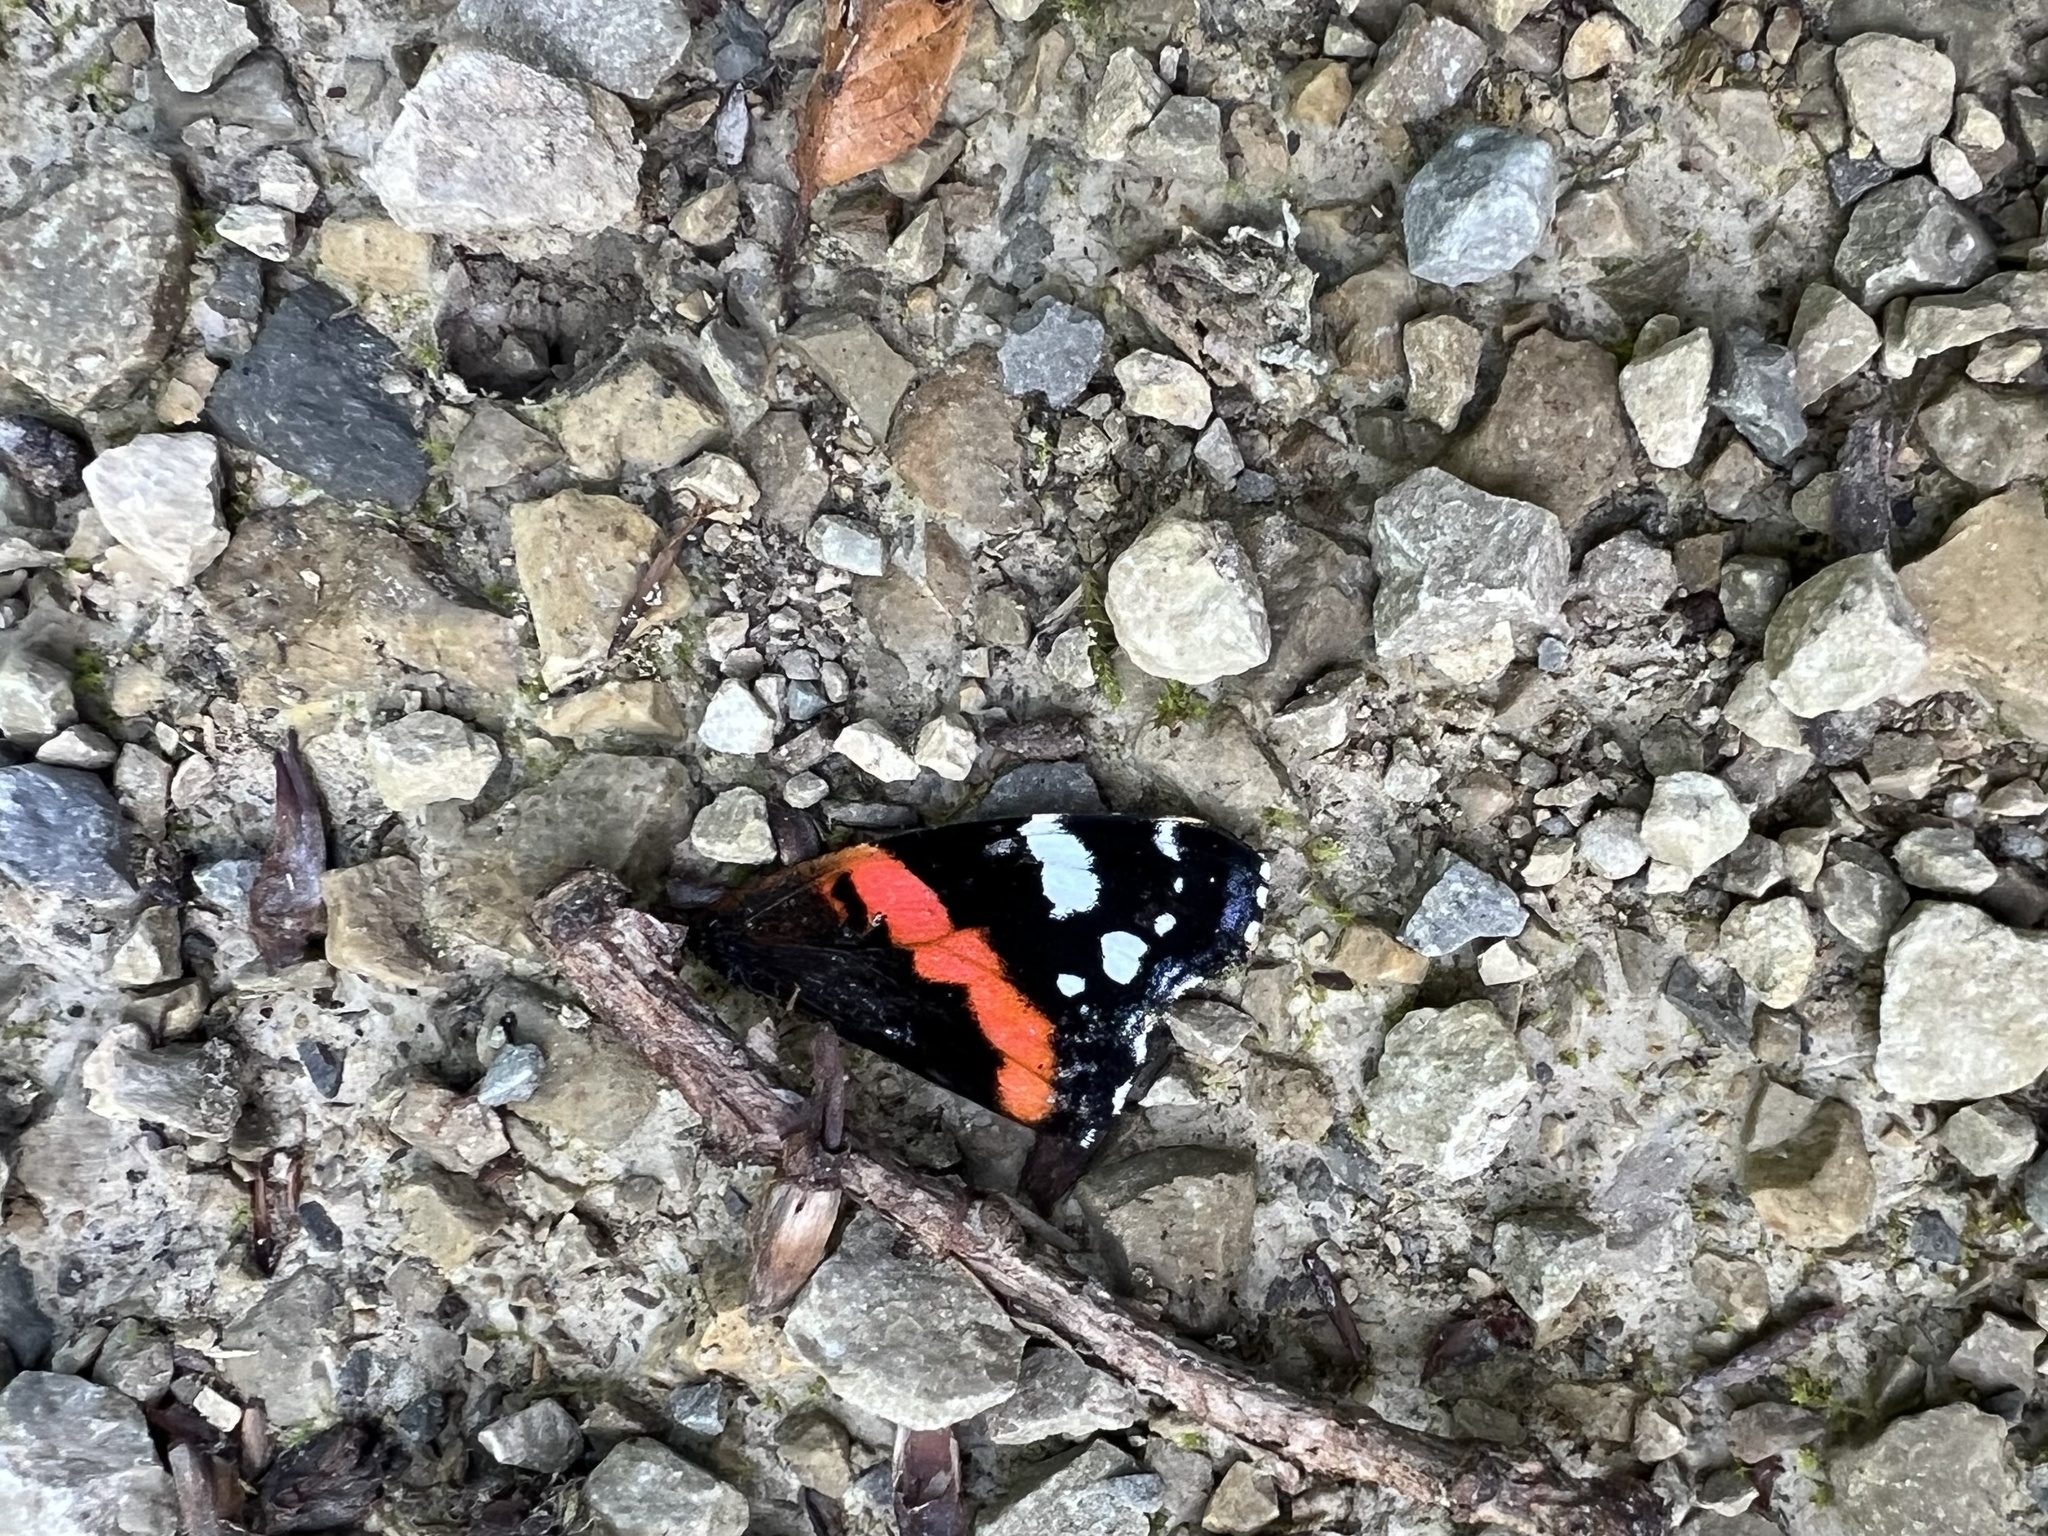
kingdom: Animalia
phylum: Arthropoda
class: Insecta
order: Lepidoptera
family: Nymphalidae
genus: Vanessa
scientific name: Vanessa atalanta
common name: Red admiral
